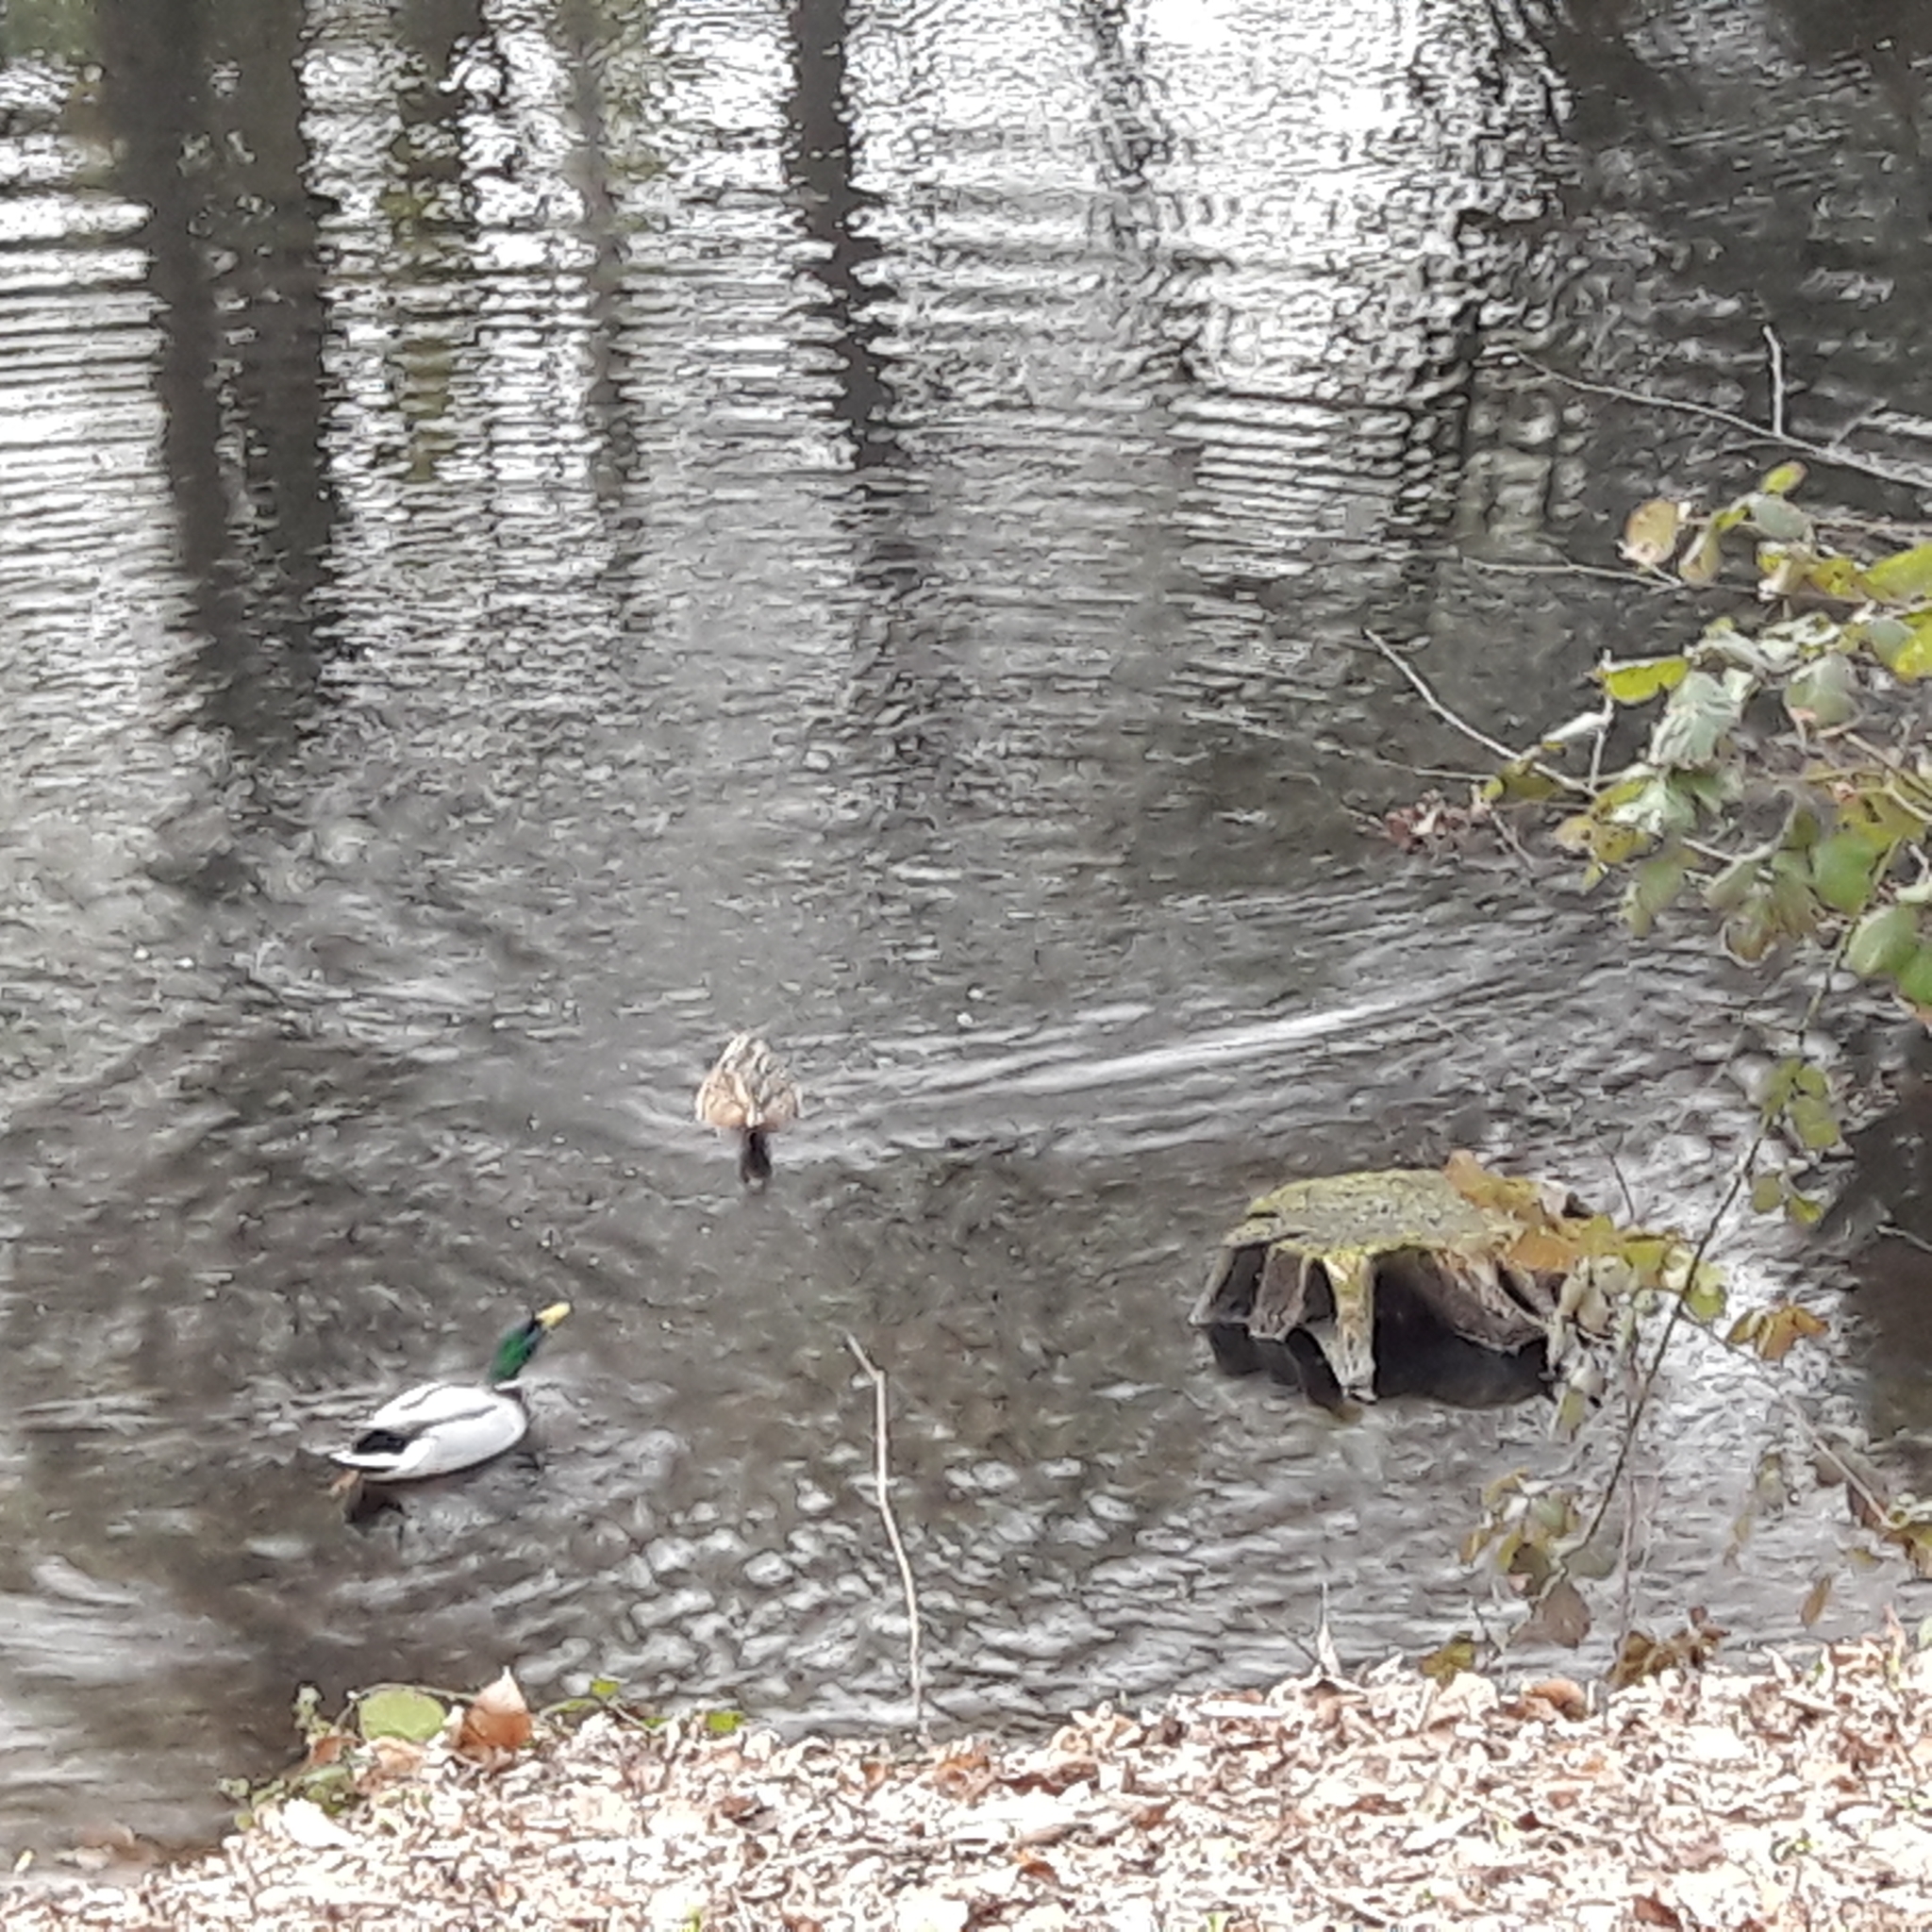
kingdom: Animalia
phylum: Chordata
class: Aves
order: Anseriformes
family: Anatidae
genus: Anas
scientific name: Anas platyrhynchos
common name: Mallard
